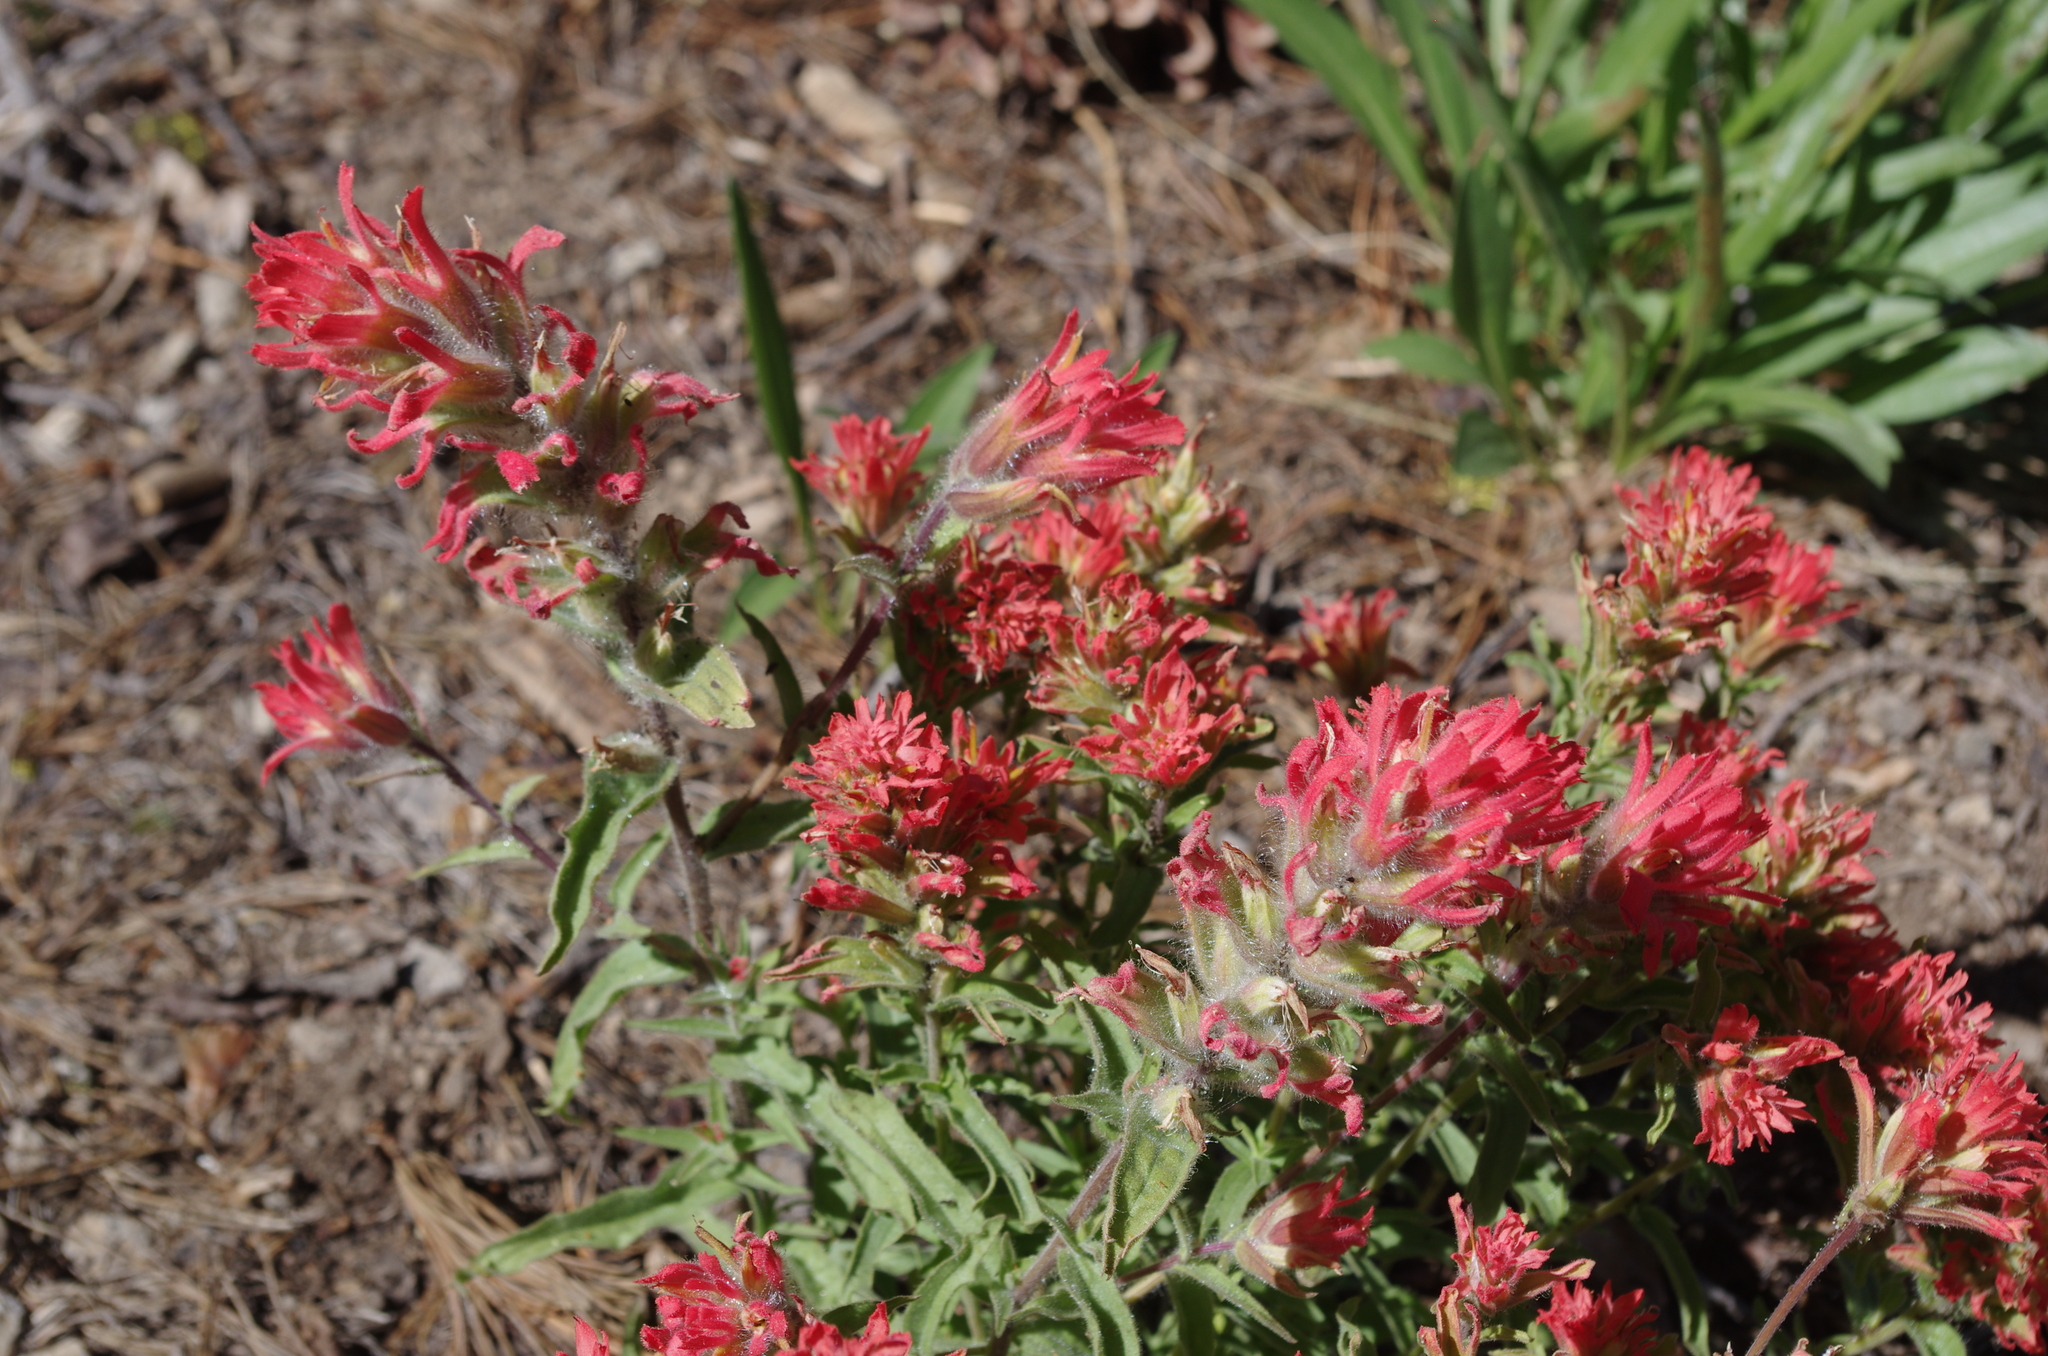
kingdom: Plantae
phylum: Tracheophyta
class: Magnoliopsida
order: Lamiales
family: Orobanchaceae
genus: Castilleja
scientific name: Castilleja applegatei
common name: Wavy-leaf paintbrush
